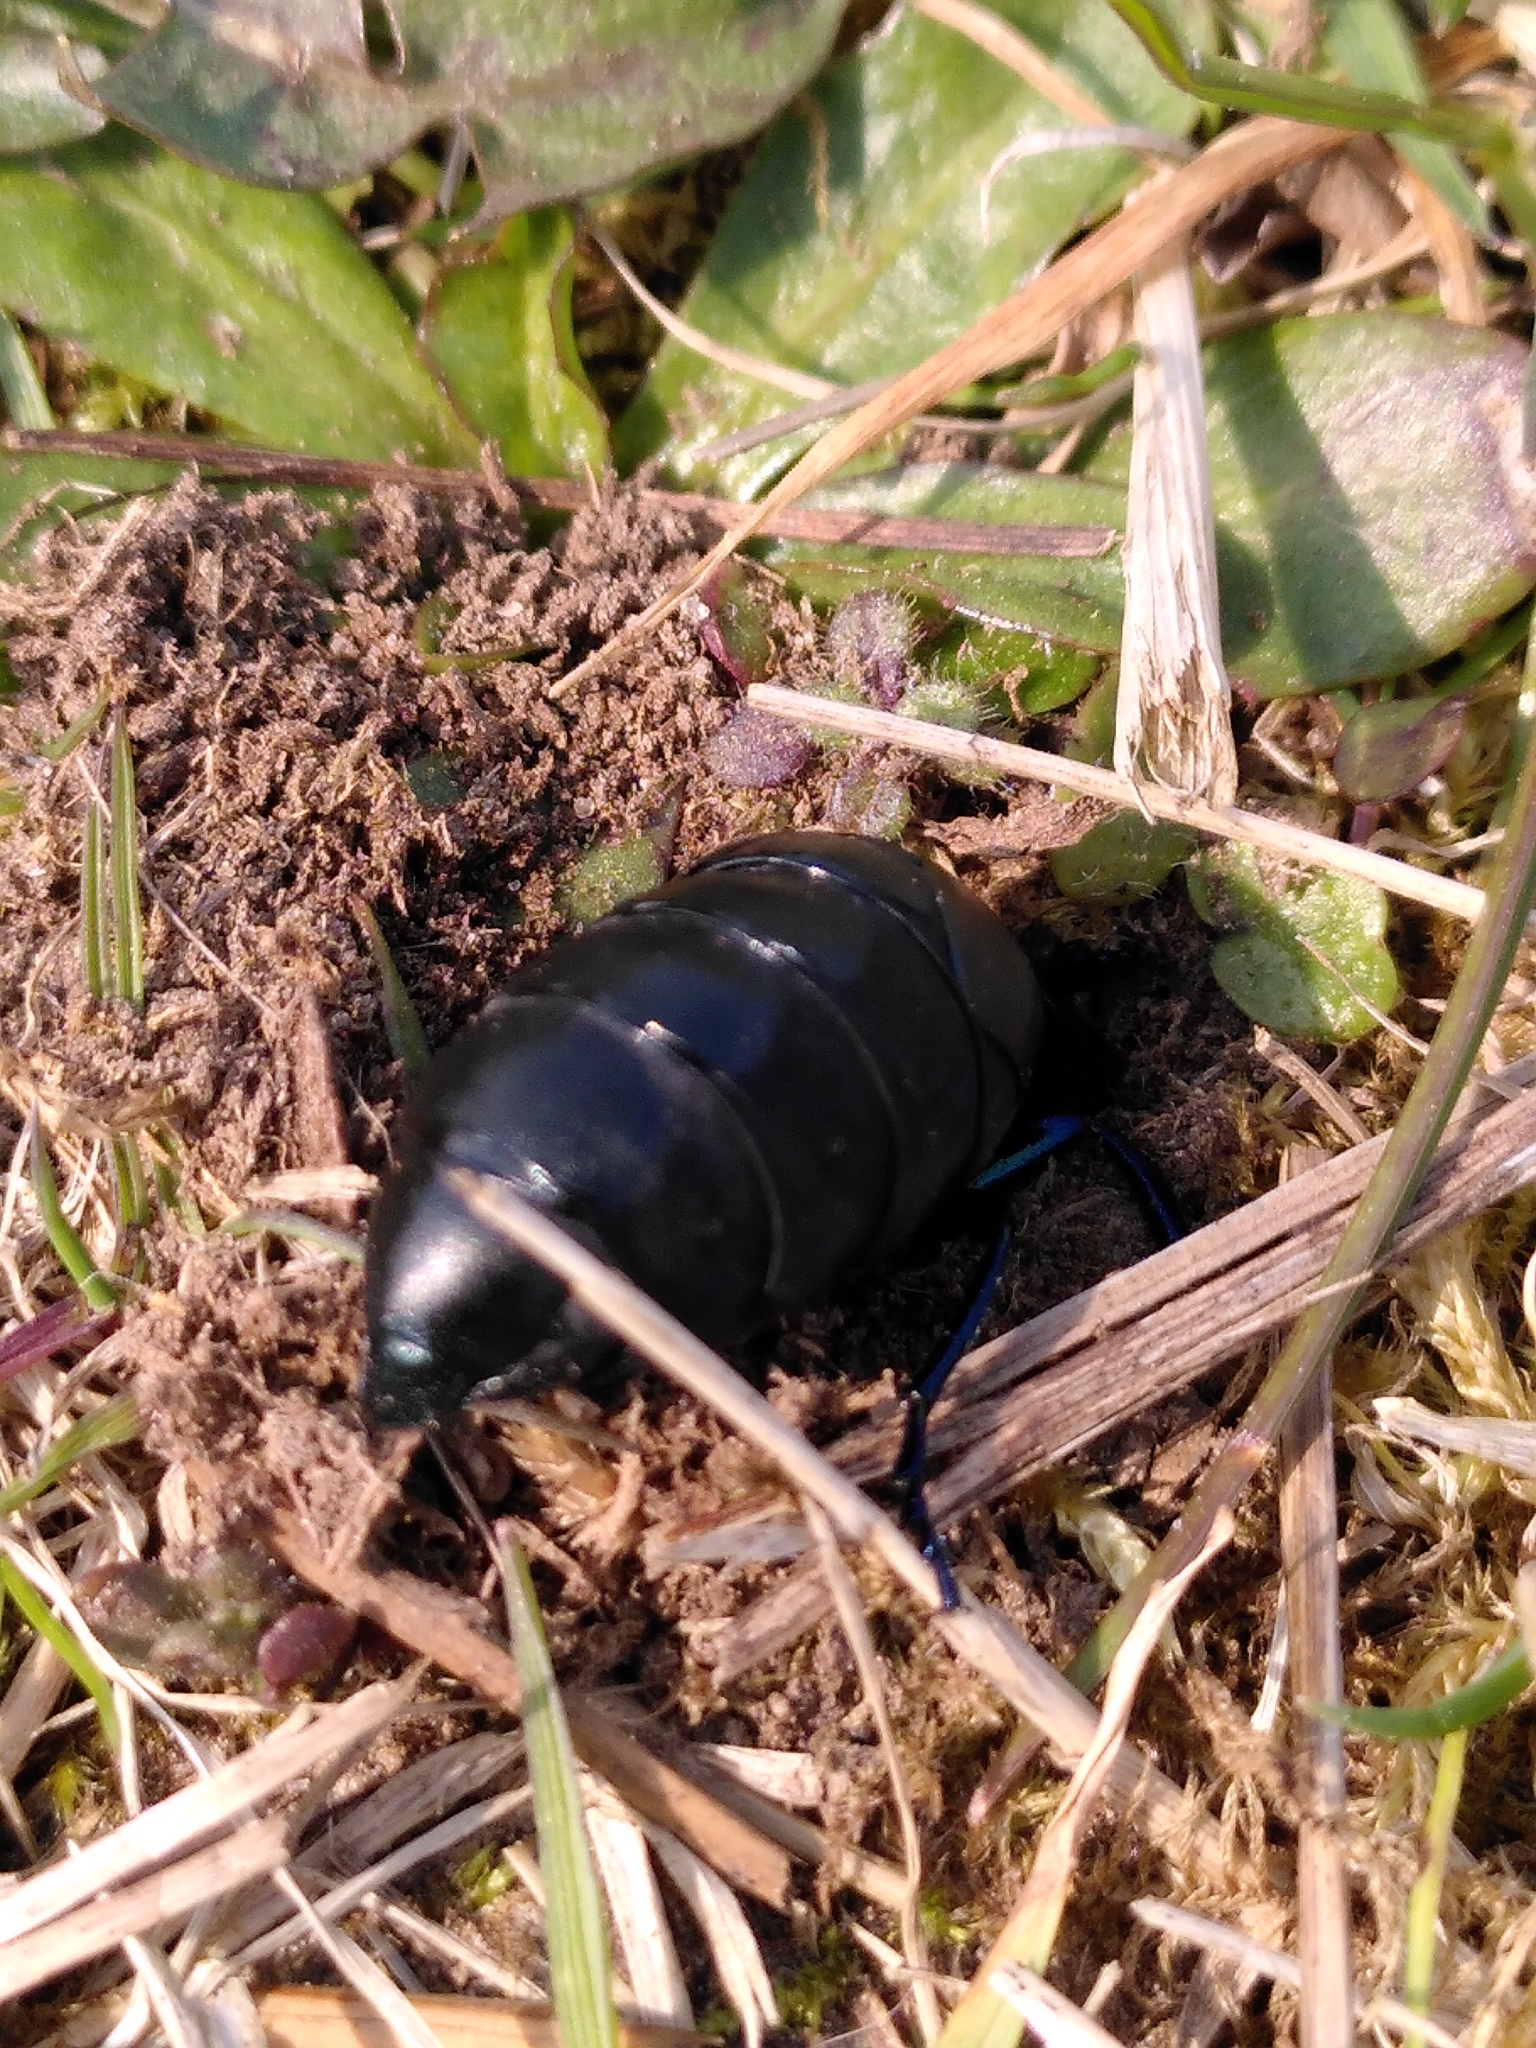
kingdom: Animalia
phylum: Arthropoda
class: Insecta
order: Coleoptera
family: Meloidae
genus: Meloe
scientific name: Meloe proscarabaeus
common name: Black oil-beetle
